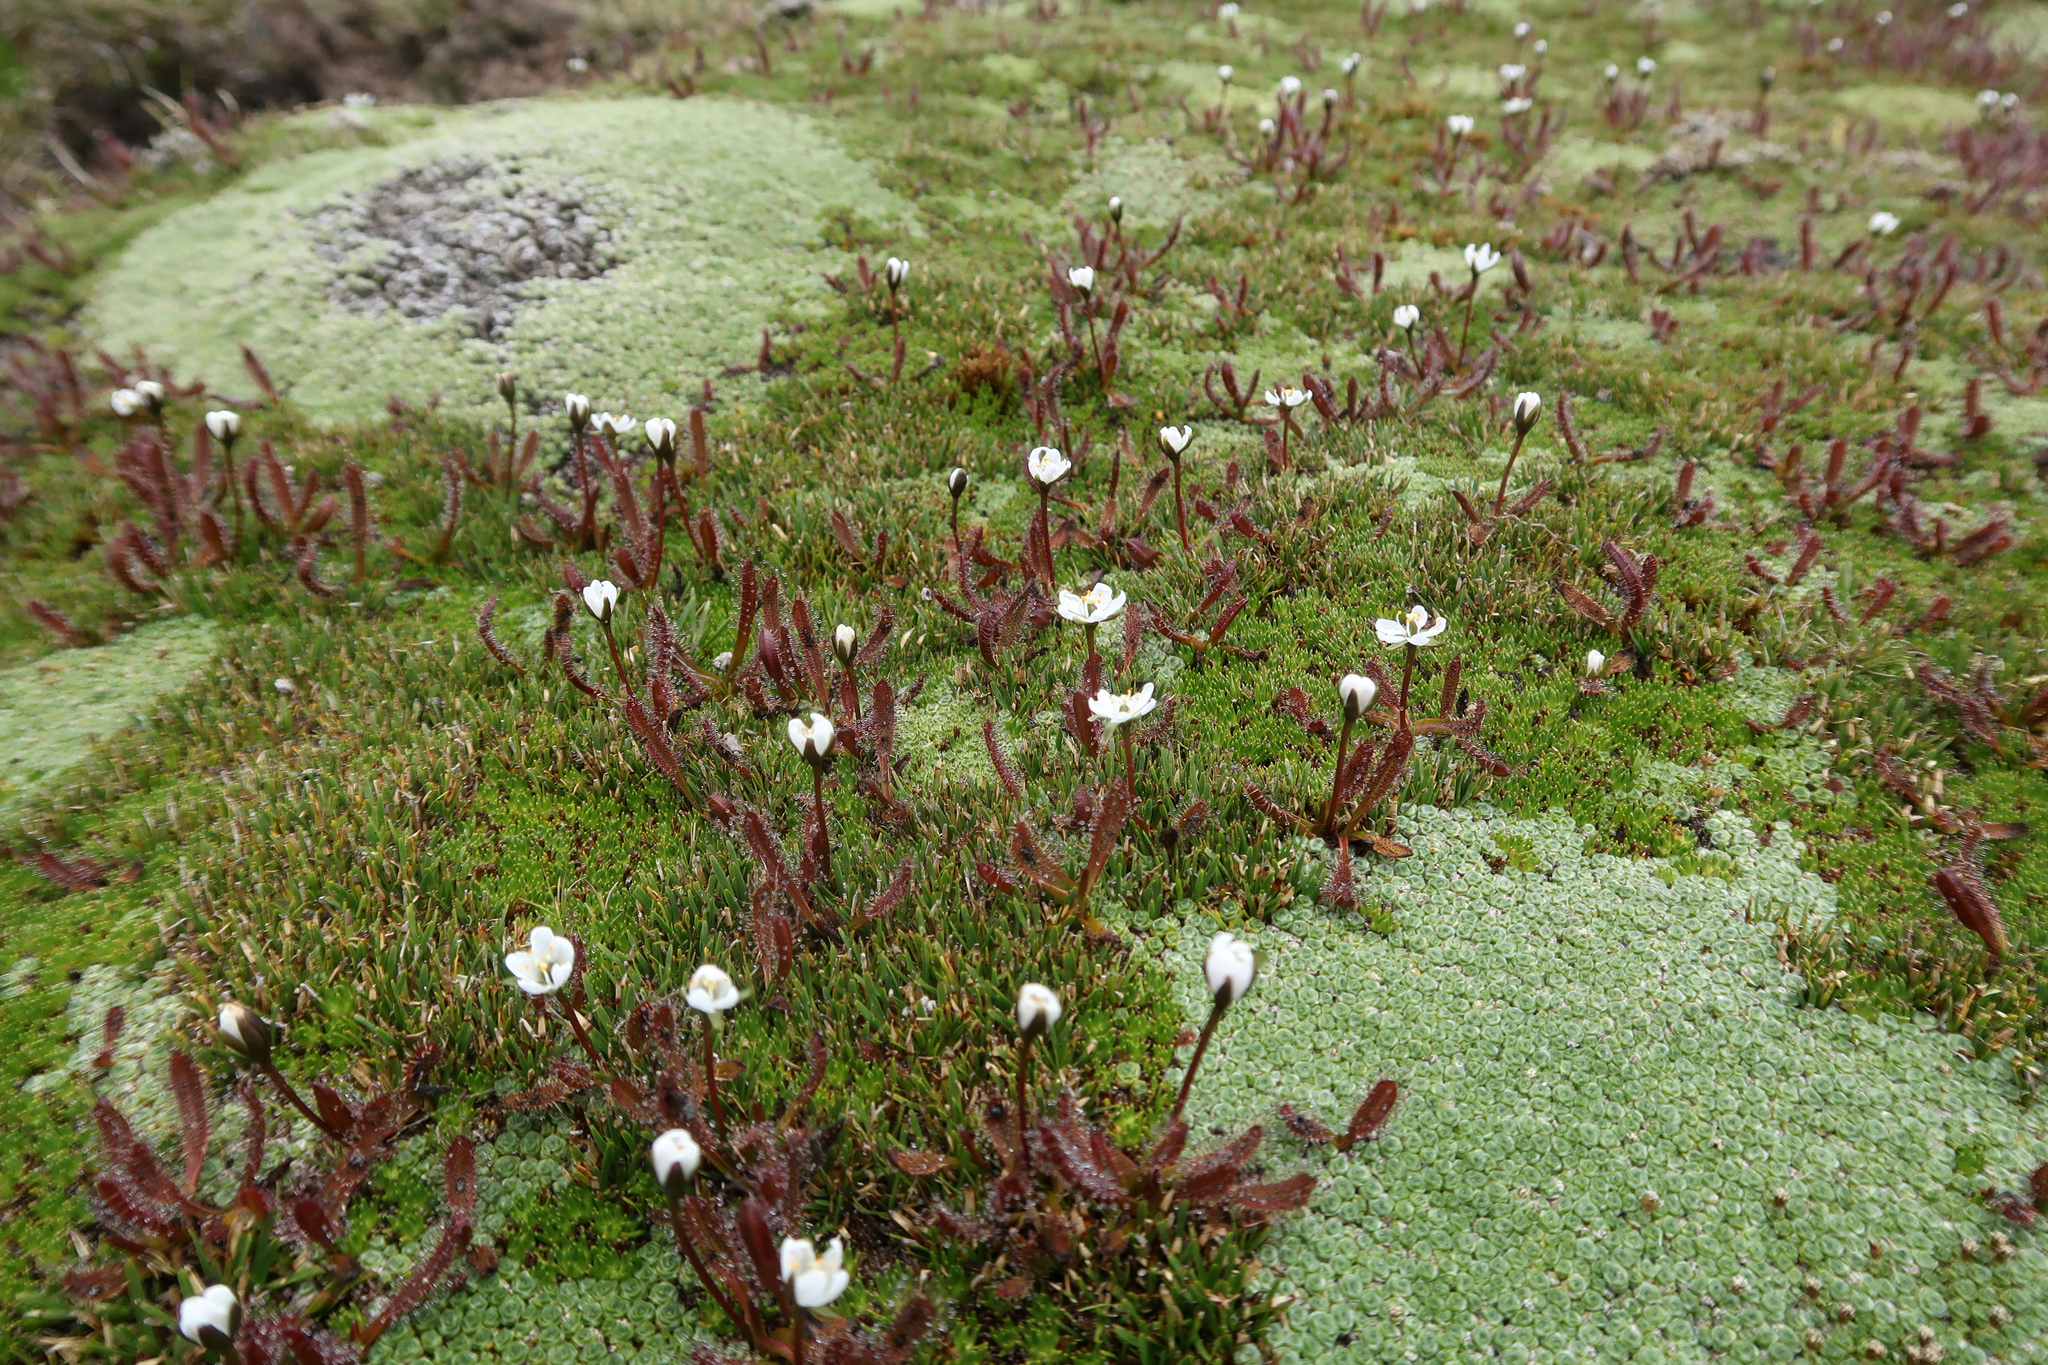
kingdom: Plantae
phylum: Tracheophyta
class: Magnoliopsida
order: Caryophyllales
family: Droseraceae
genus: Drosera
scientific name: Drosera arcturi
